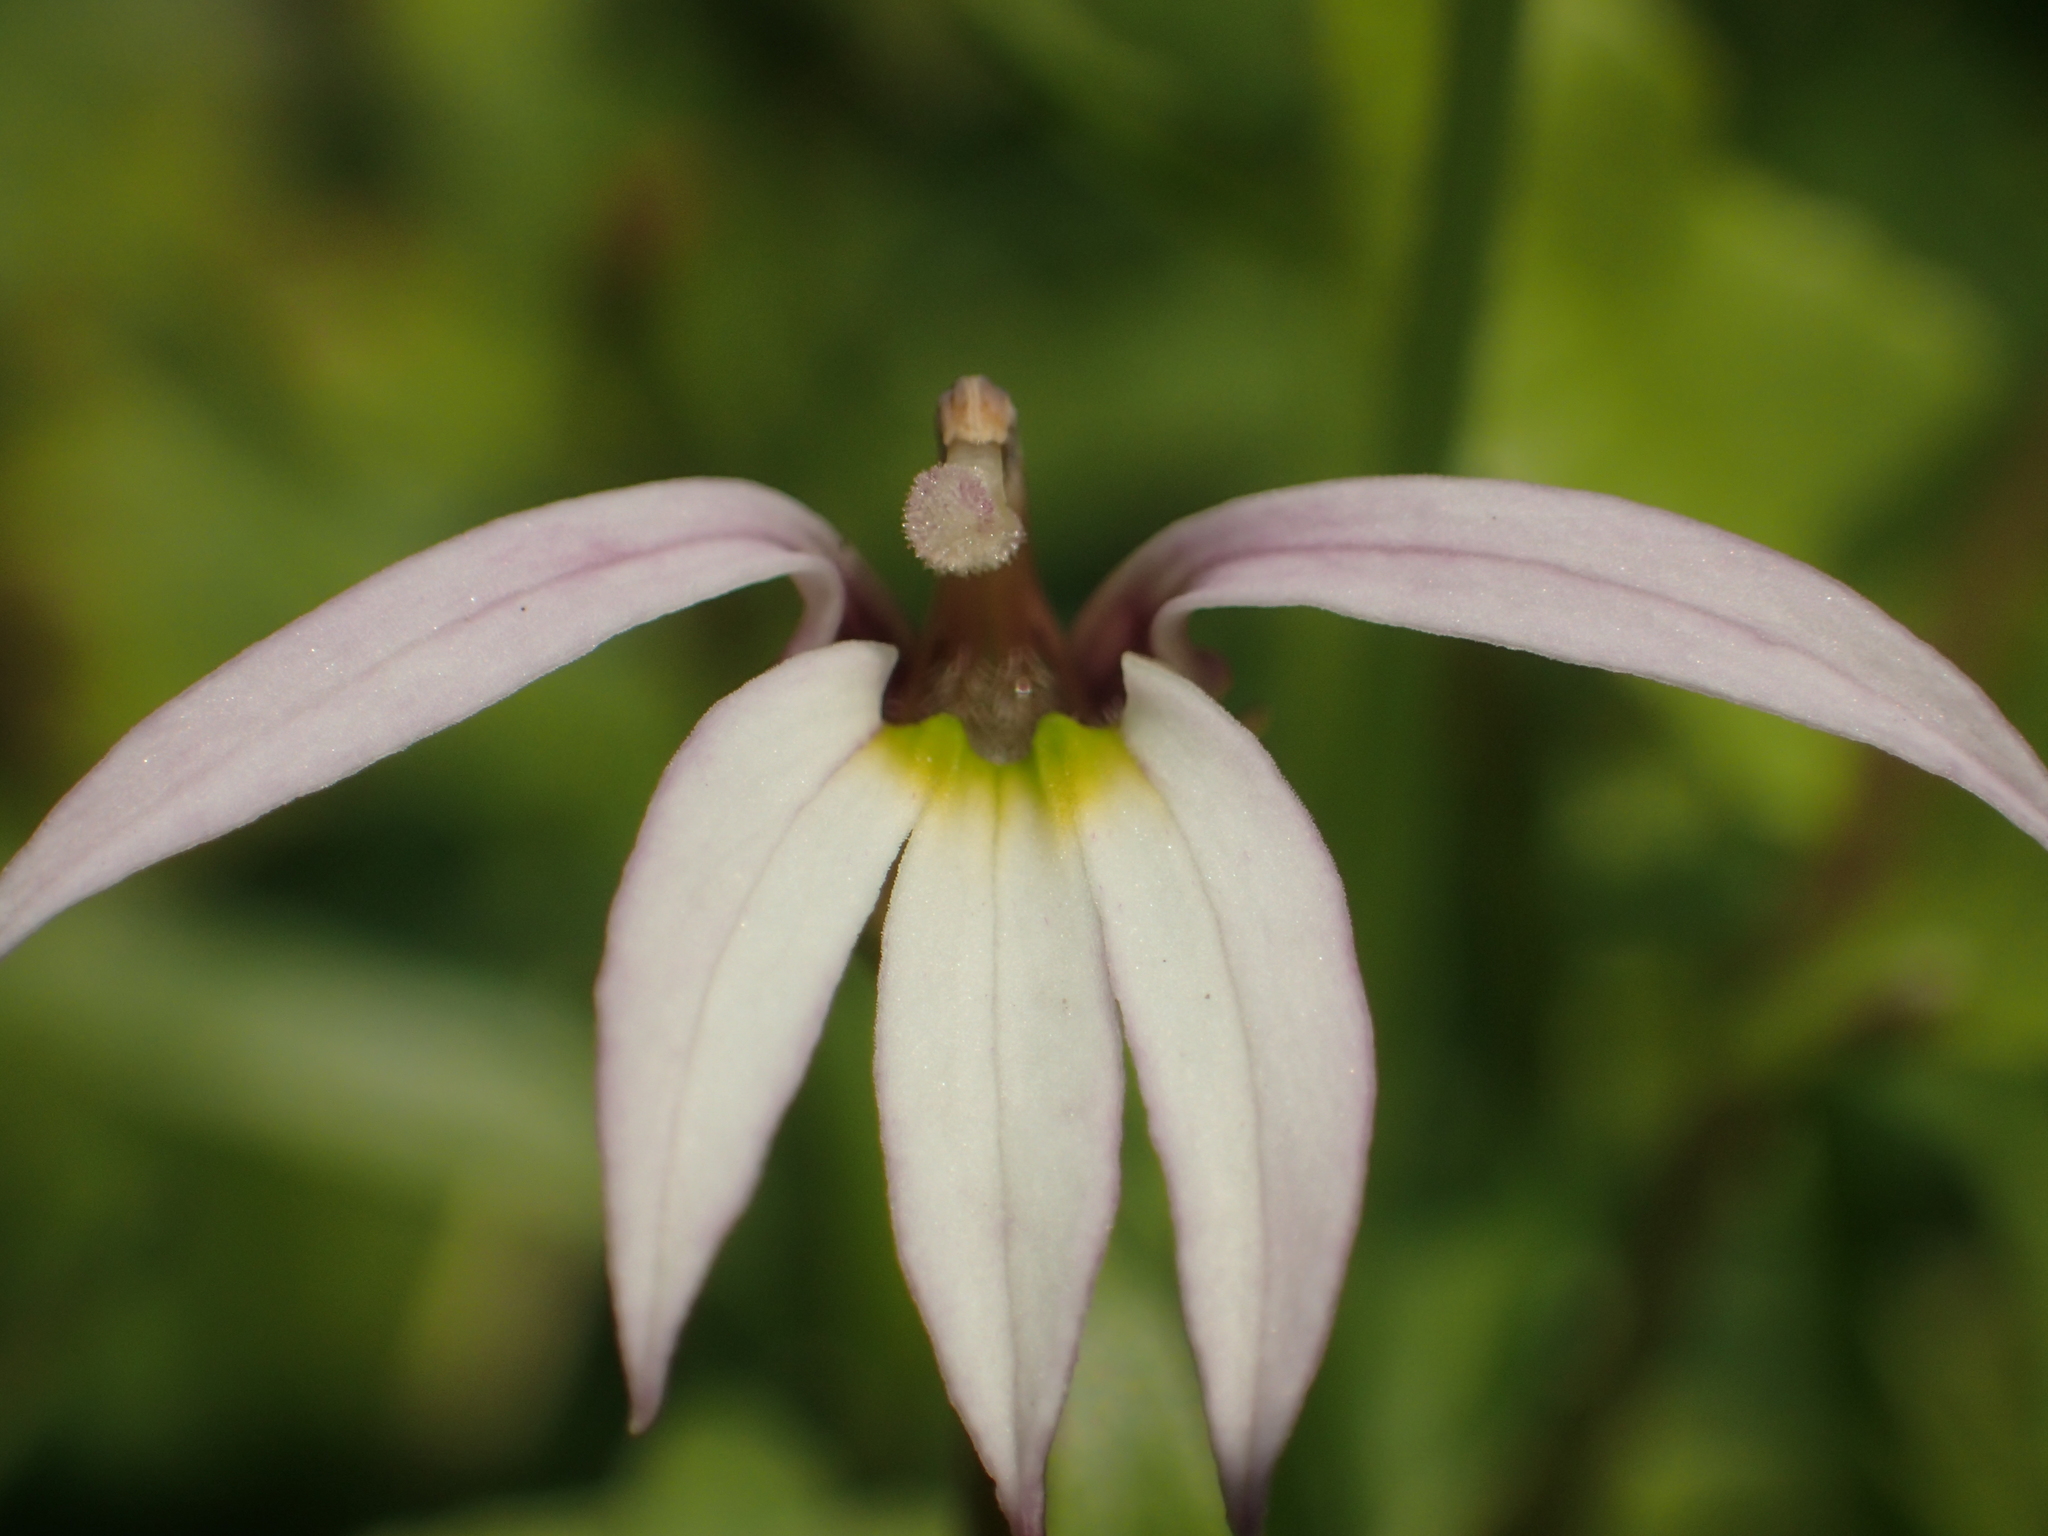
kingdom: Plantae
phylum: Tracheophyta
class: Magnoliopsida
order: Asterales
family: Campanulaceae
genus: Lobelia
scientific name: Lobelia chinensis
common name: Chinese lobelia
